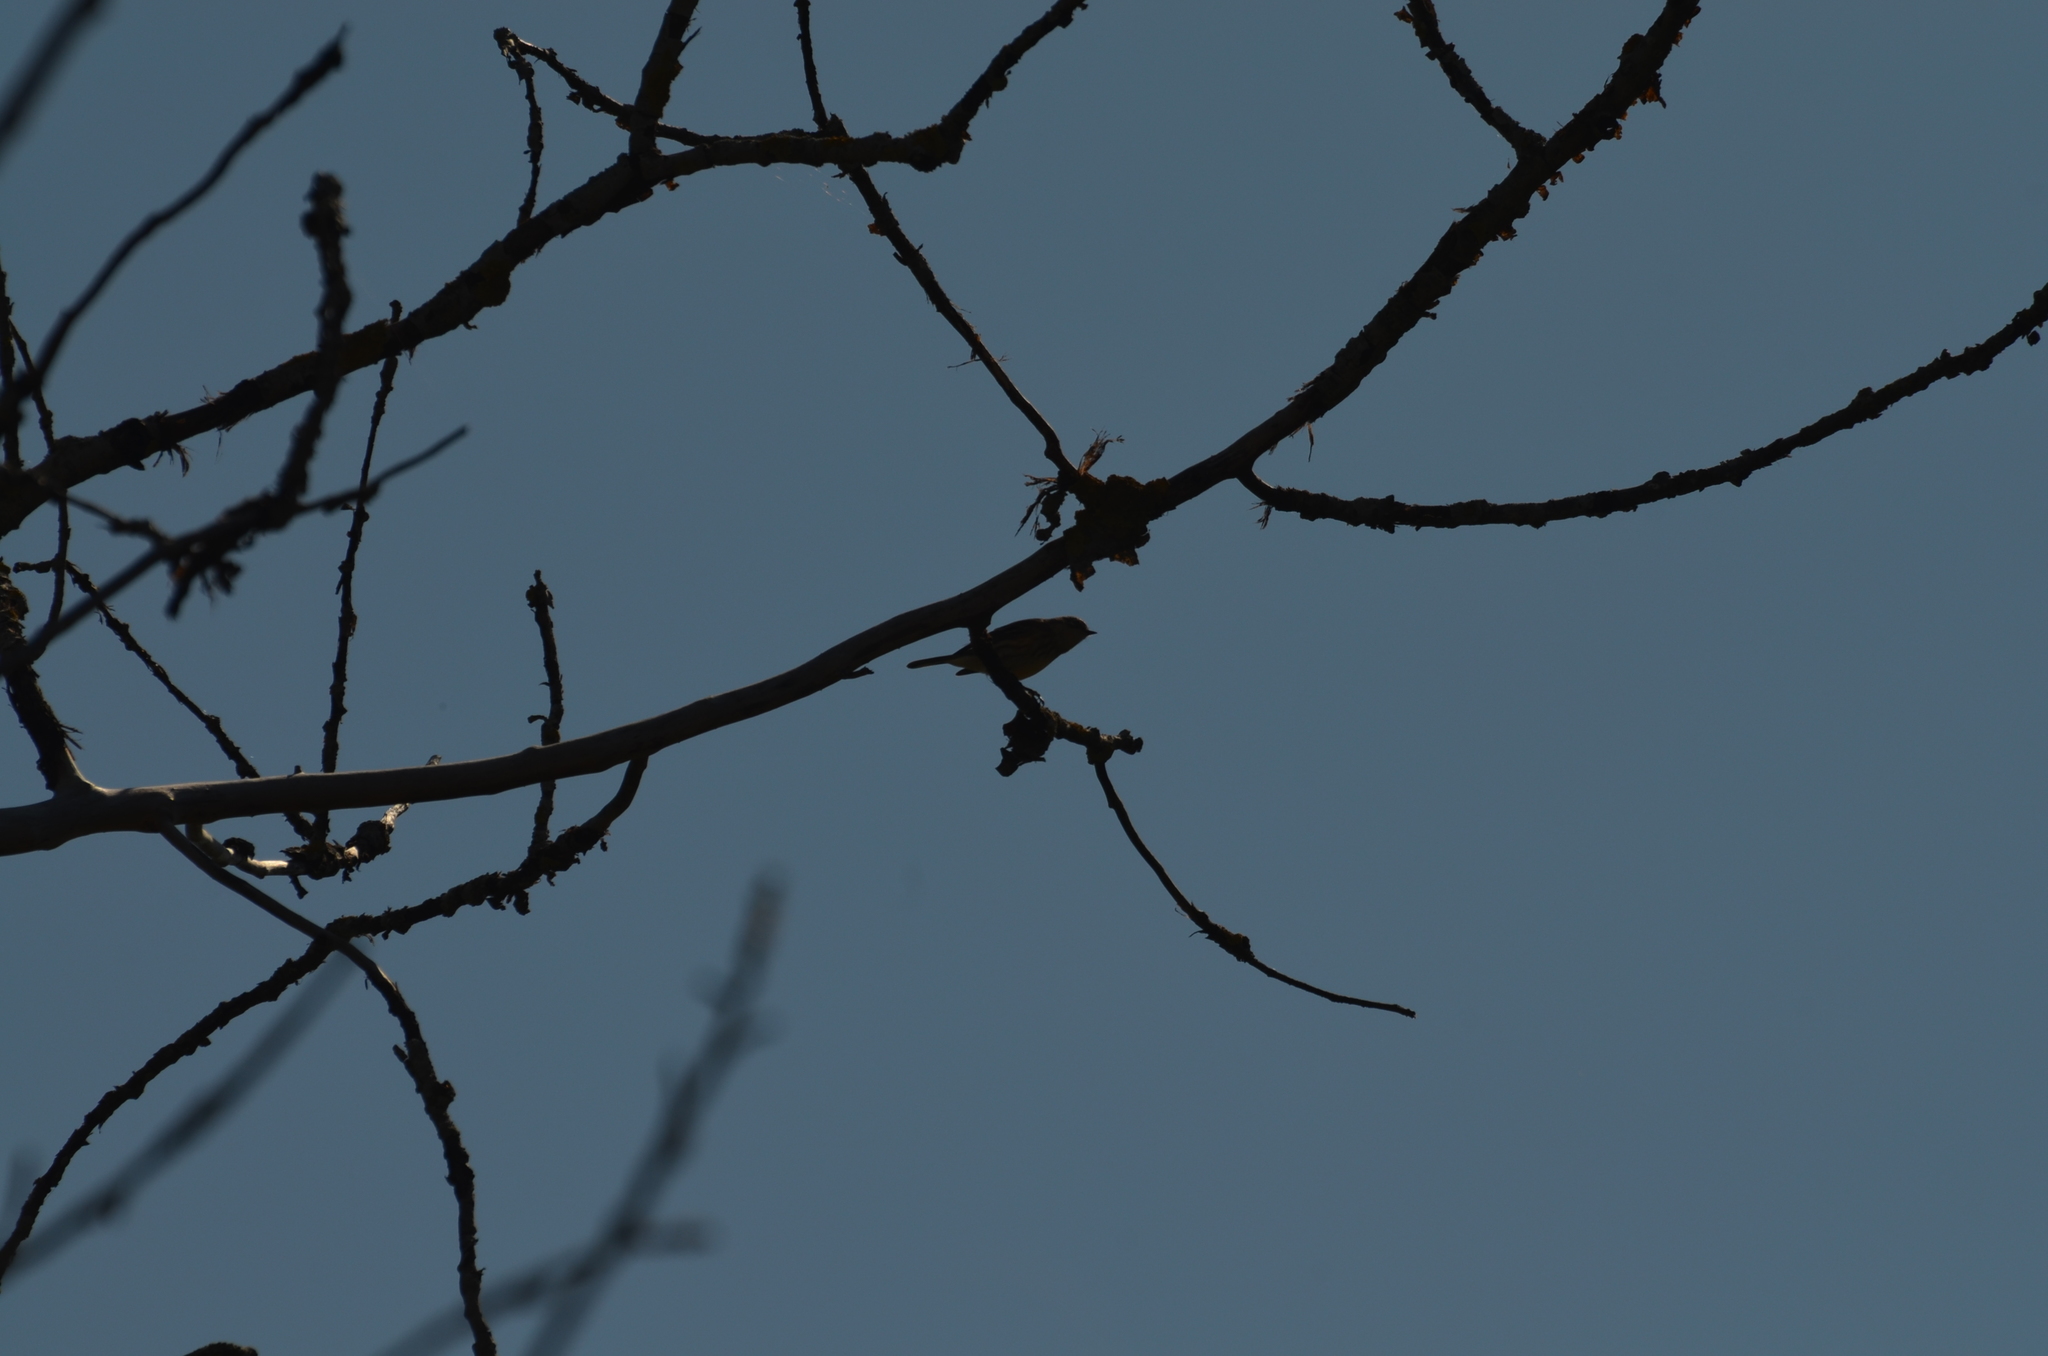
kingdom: Animalia
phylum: Chordata
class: Aves
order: Passeriformes
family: Parulidae
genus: Setophaga
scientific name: Setophaga coronata
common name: Myrtle warbler
